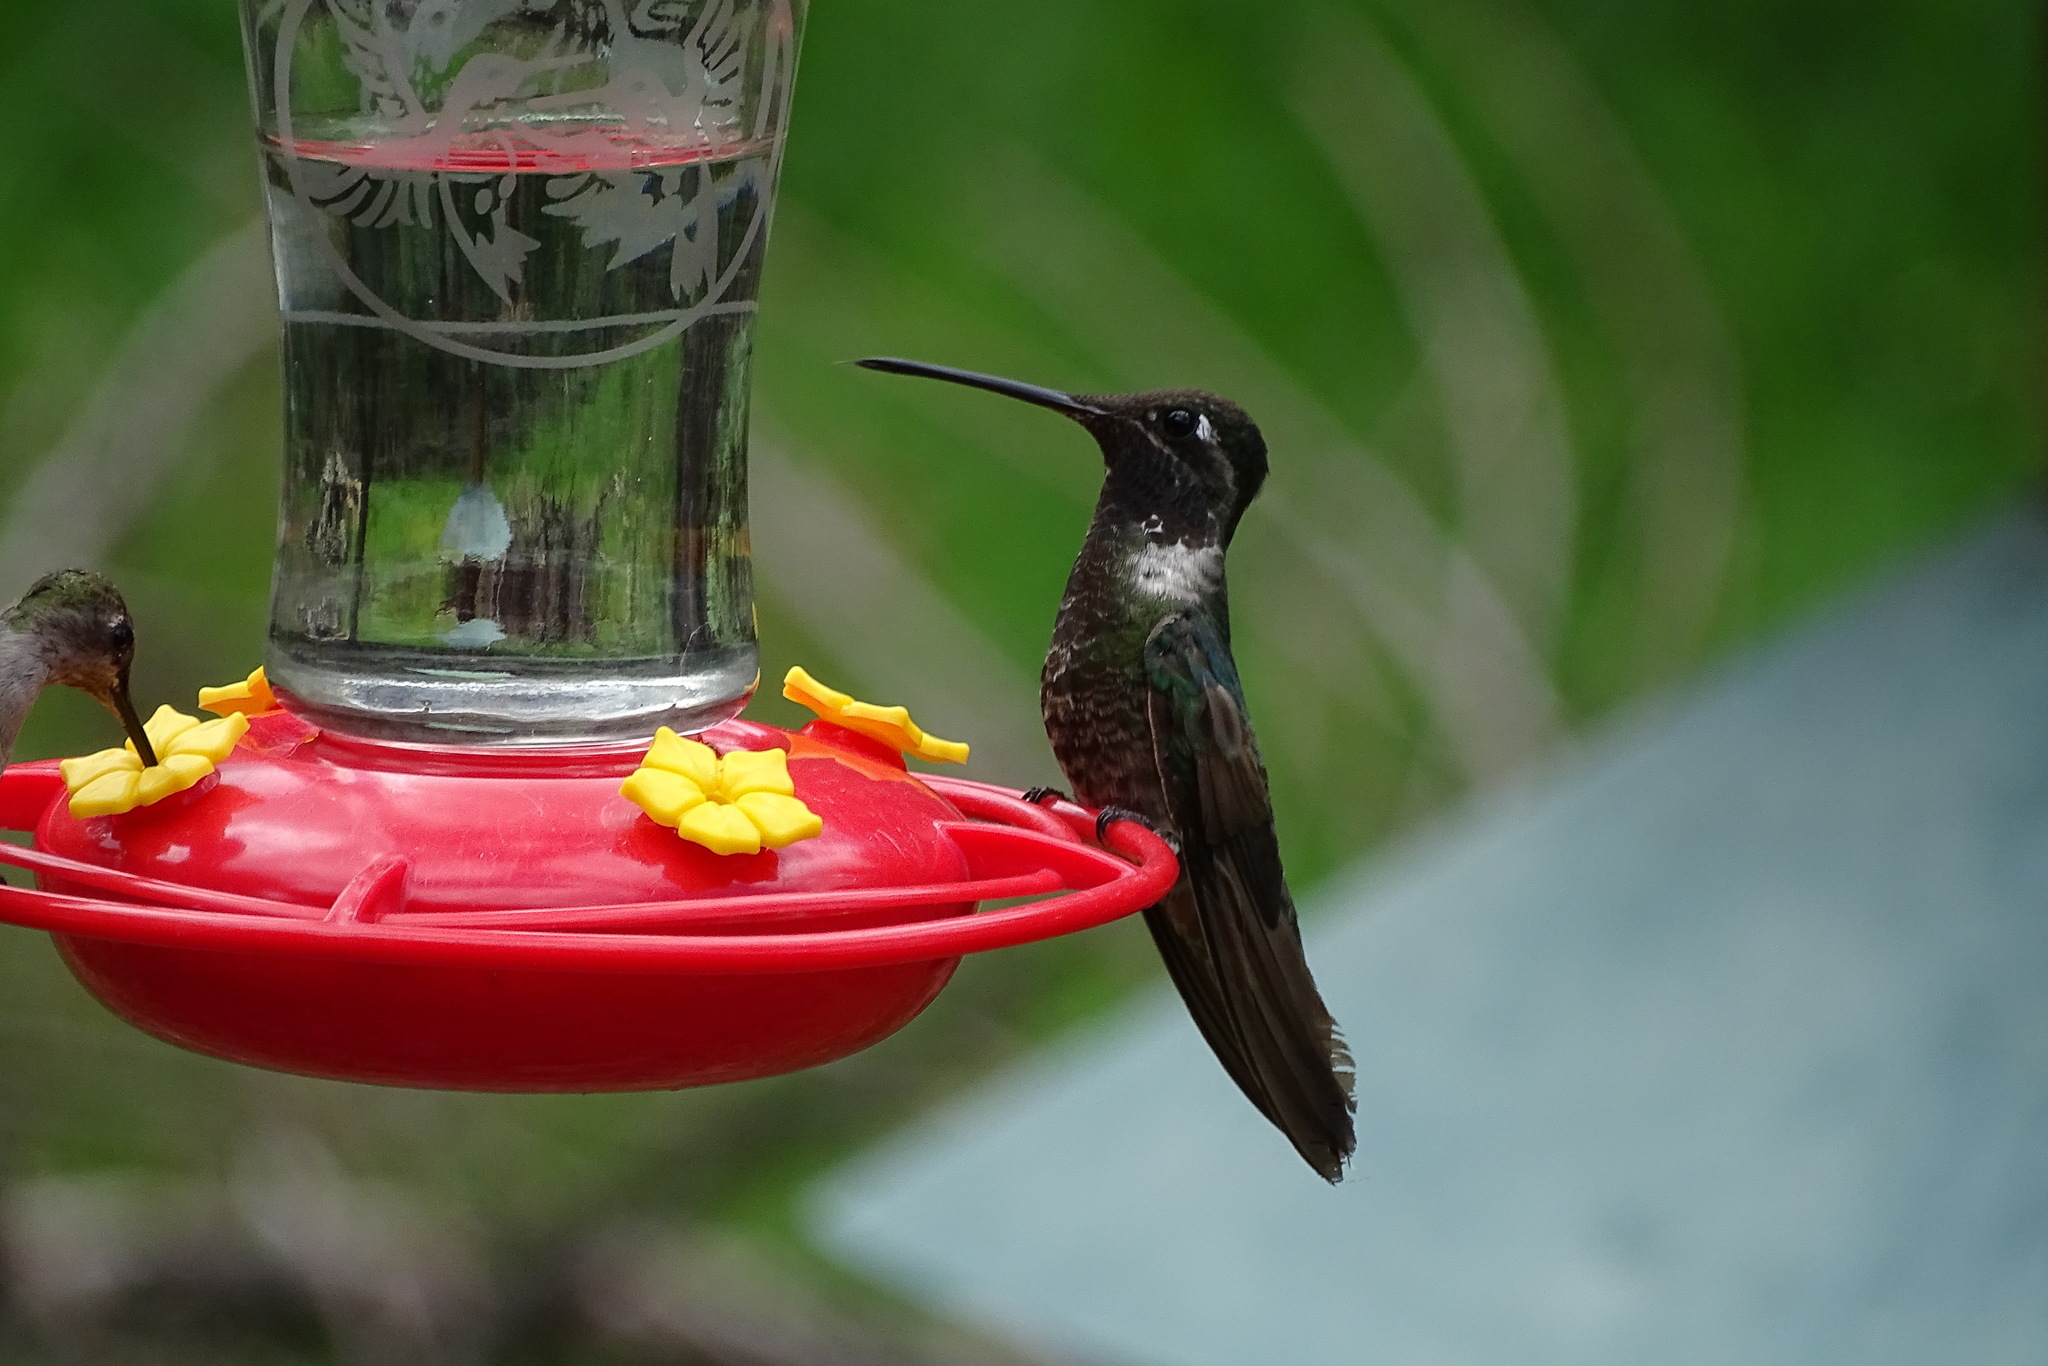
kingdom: Animalia
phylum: Chordata
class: Aves
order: Apodiformes
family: Trochilidae
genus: Eugenes
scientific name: Eugenes fulgens
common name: Magnificent hummingbird
